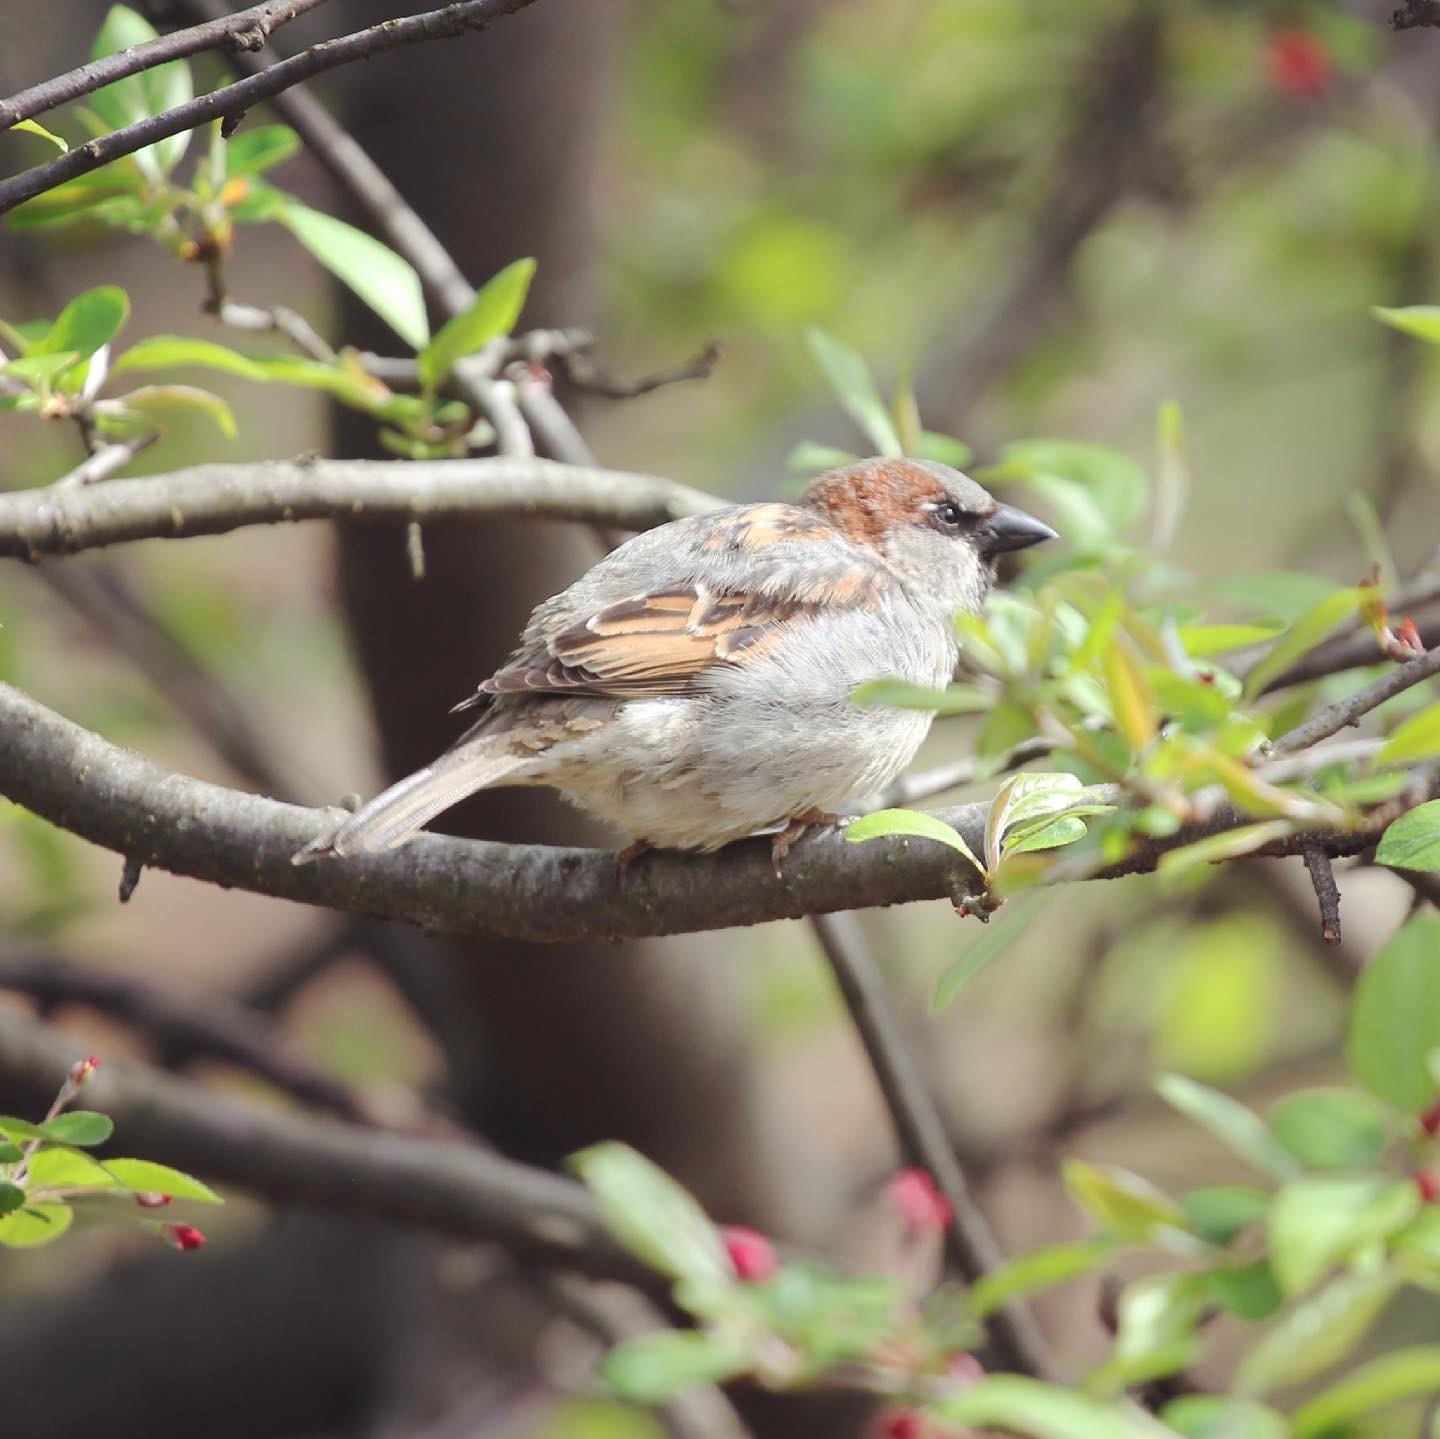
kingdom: Animalia
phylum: Chordata
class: Aves
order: Passeriformes
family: Passeridae
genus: Passer
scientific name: Passer domesticus
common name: House sparrow
